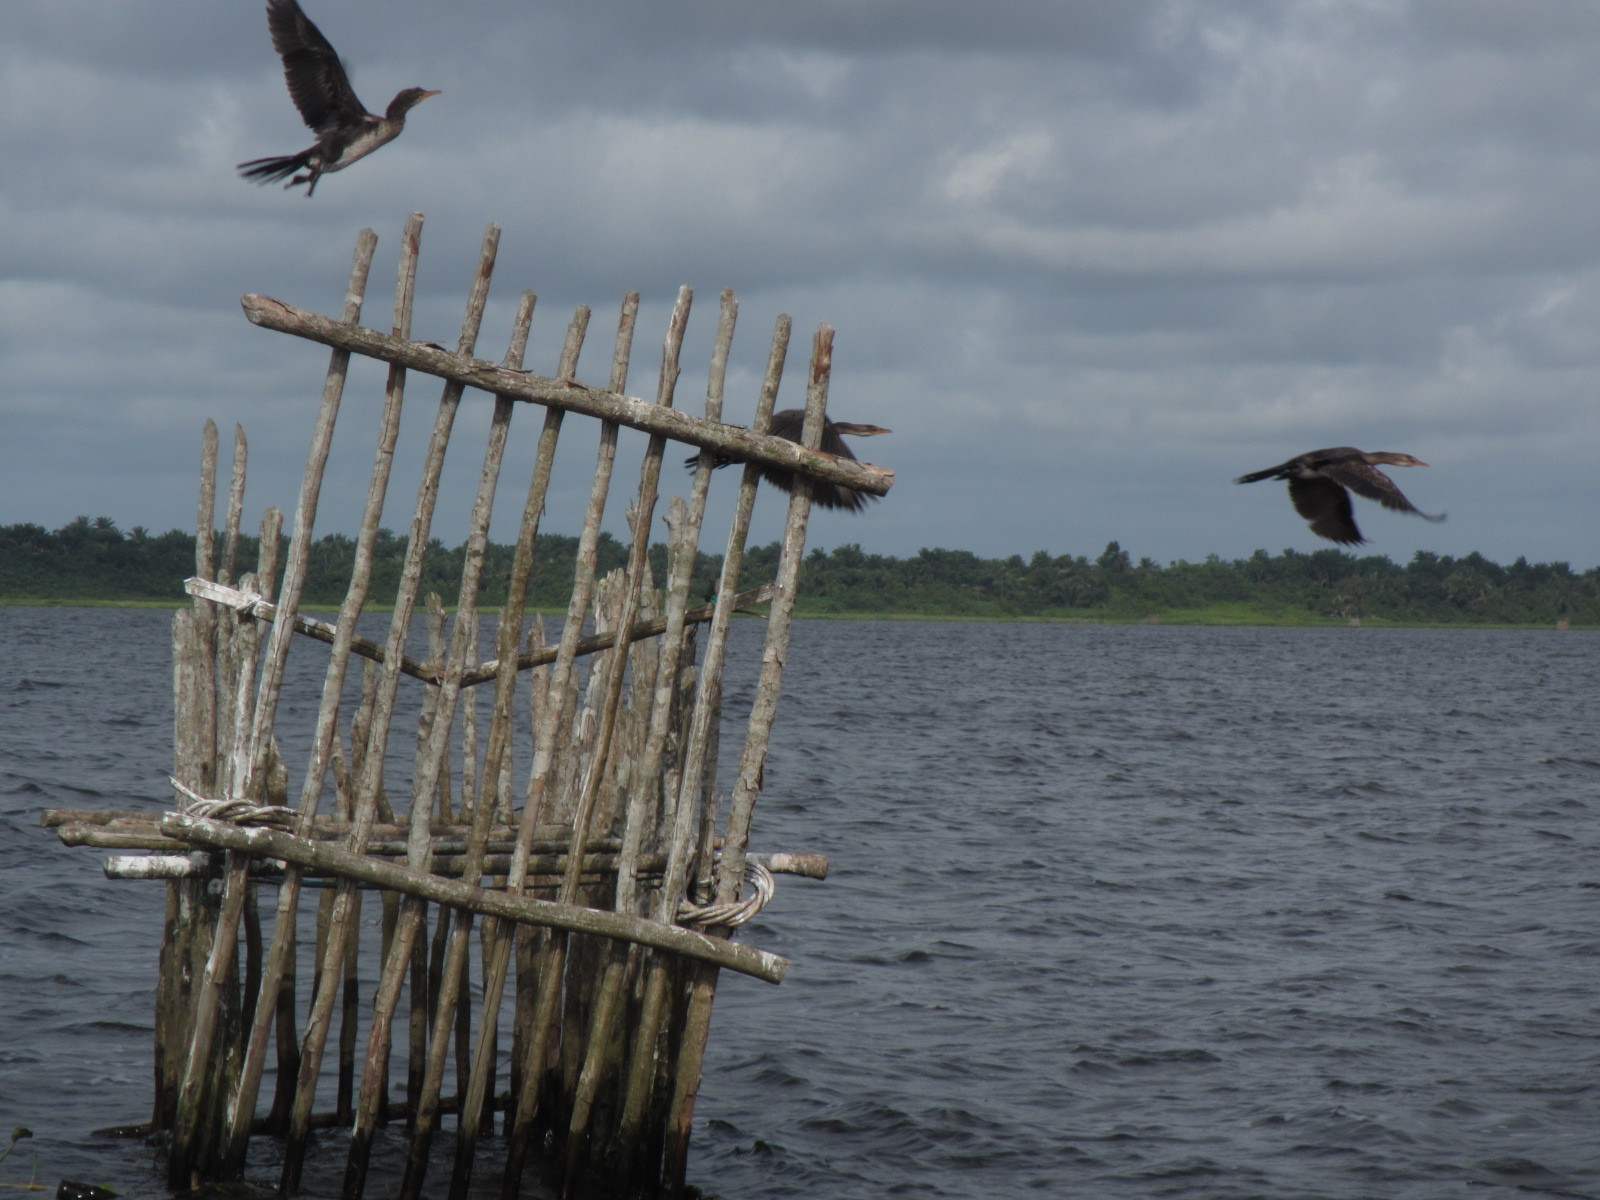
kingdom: Animalia
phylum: Chordata
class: Aves
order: Suliformes
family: Phalacrocoracidae
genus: Microcarbo
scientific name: Microcarbo africanus
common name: Long-tailed cormorant
